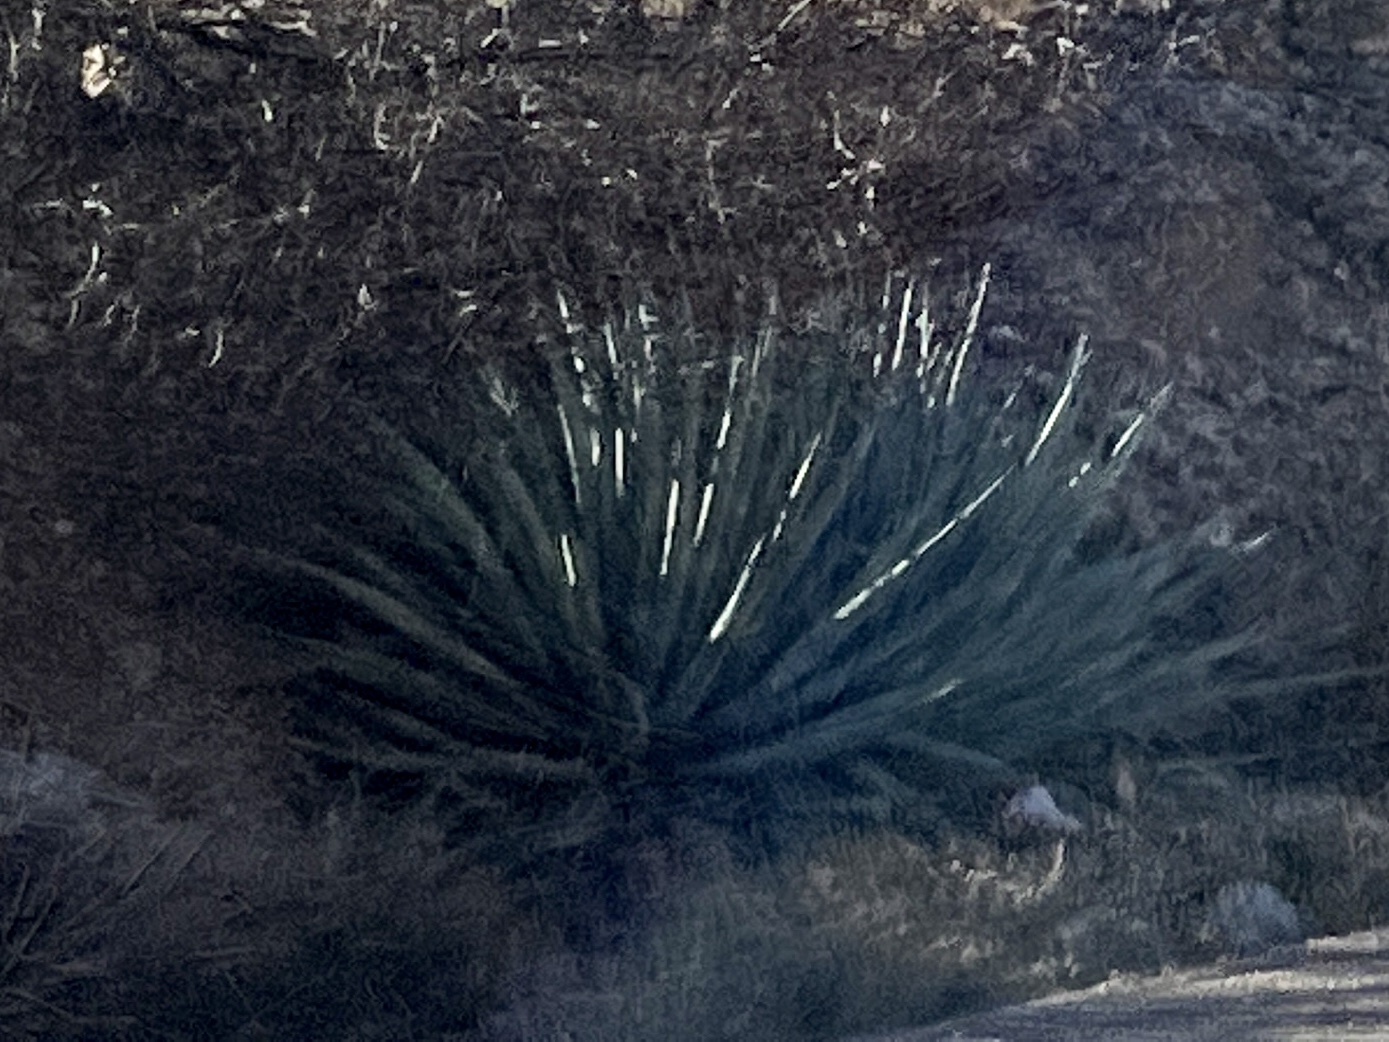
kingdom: Plantae
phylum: Tracheophyta
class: Liliopsida
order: Asparagales
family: Asparagaceae
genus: Agave
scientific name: Agave palmeri
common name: Palmer agave
